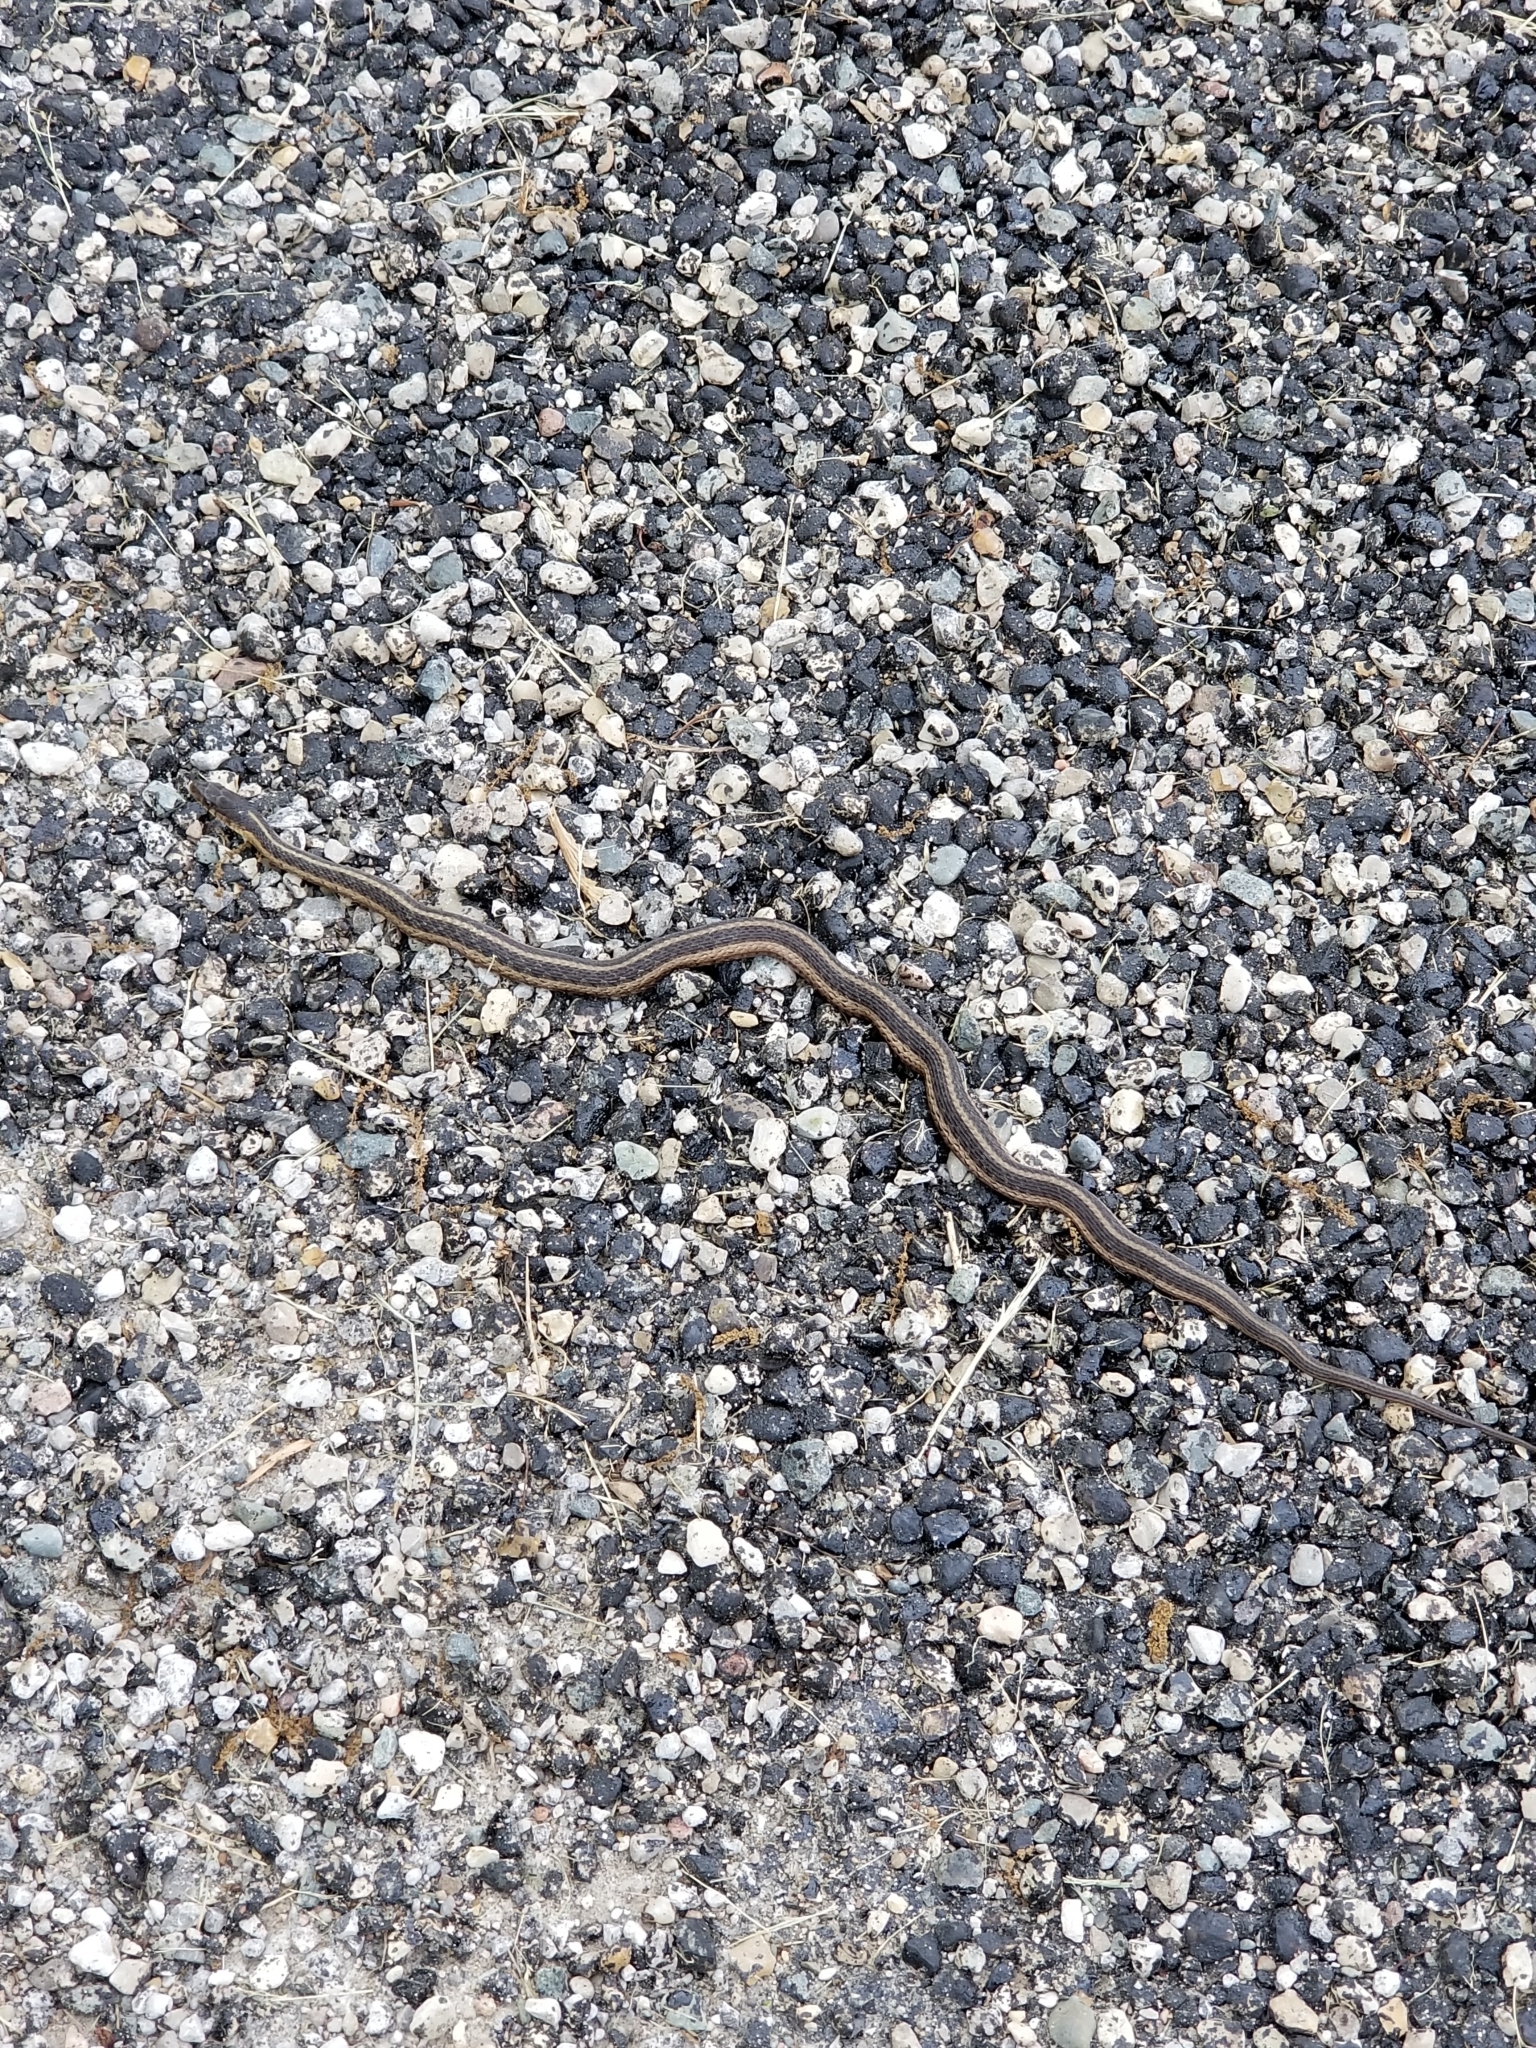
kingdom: Animalia
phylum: Chordata
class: Squamata
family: Colubridae
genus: Thamnophis
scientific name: Thamnophis sirtalis
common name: Common garter snake
